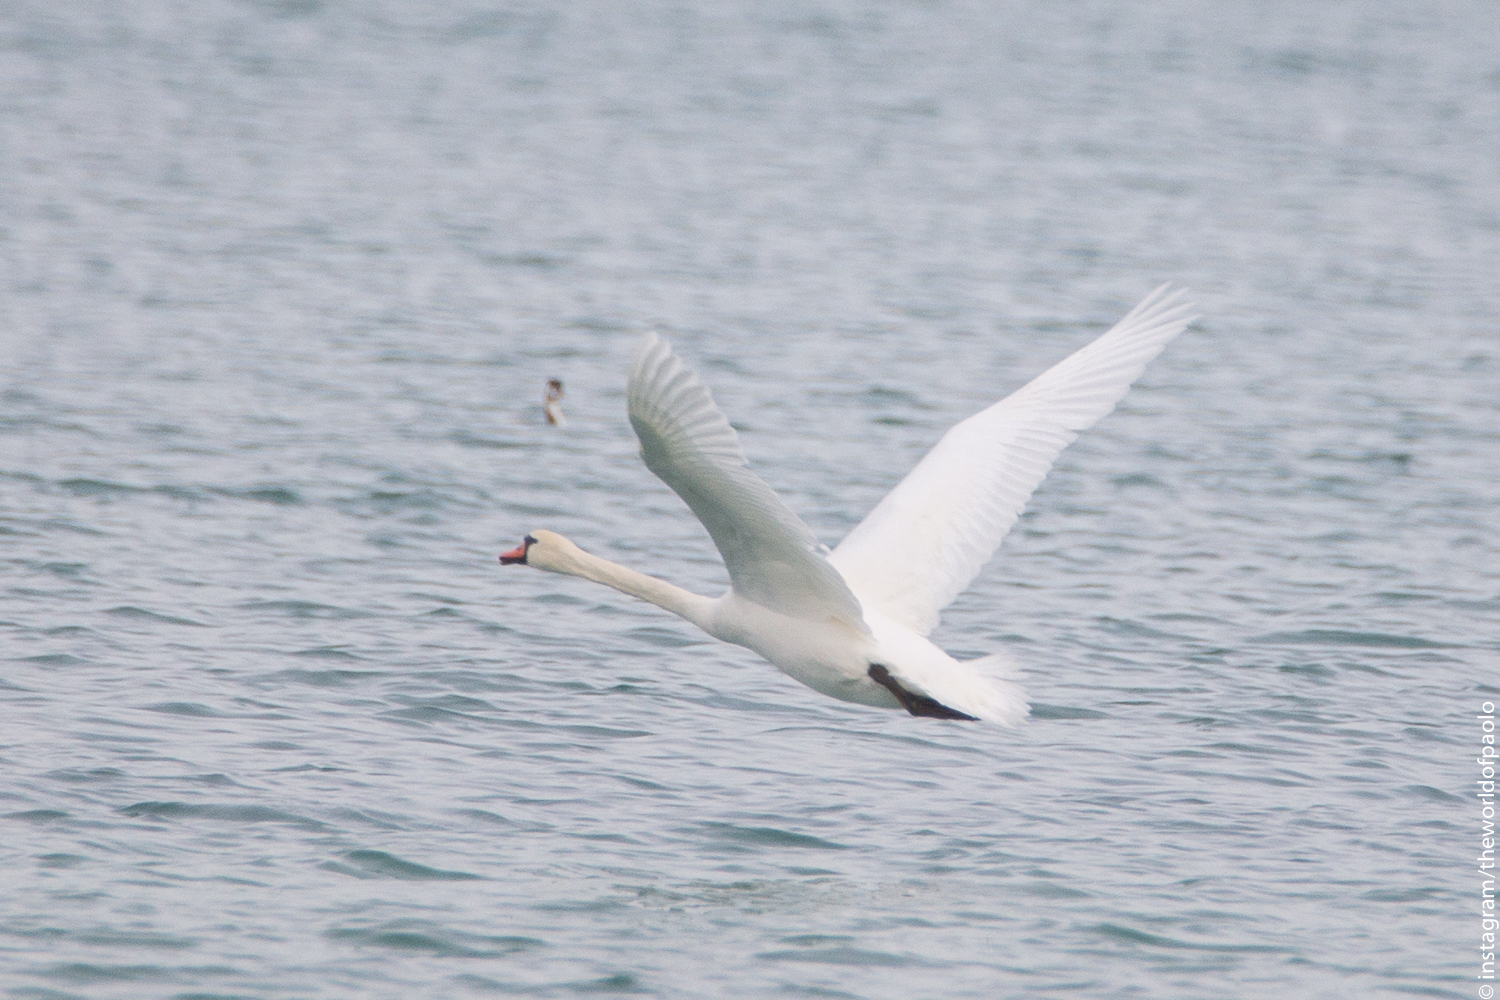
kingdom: Animalia
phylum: Chordata
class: Aves
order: Anseriformes
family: Anatidae
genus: Cygnus
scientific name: Cygnus olor
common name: Mute swan
